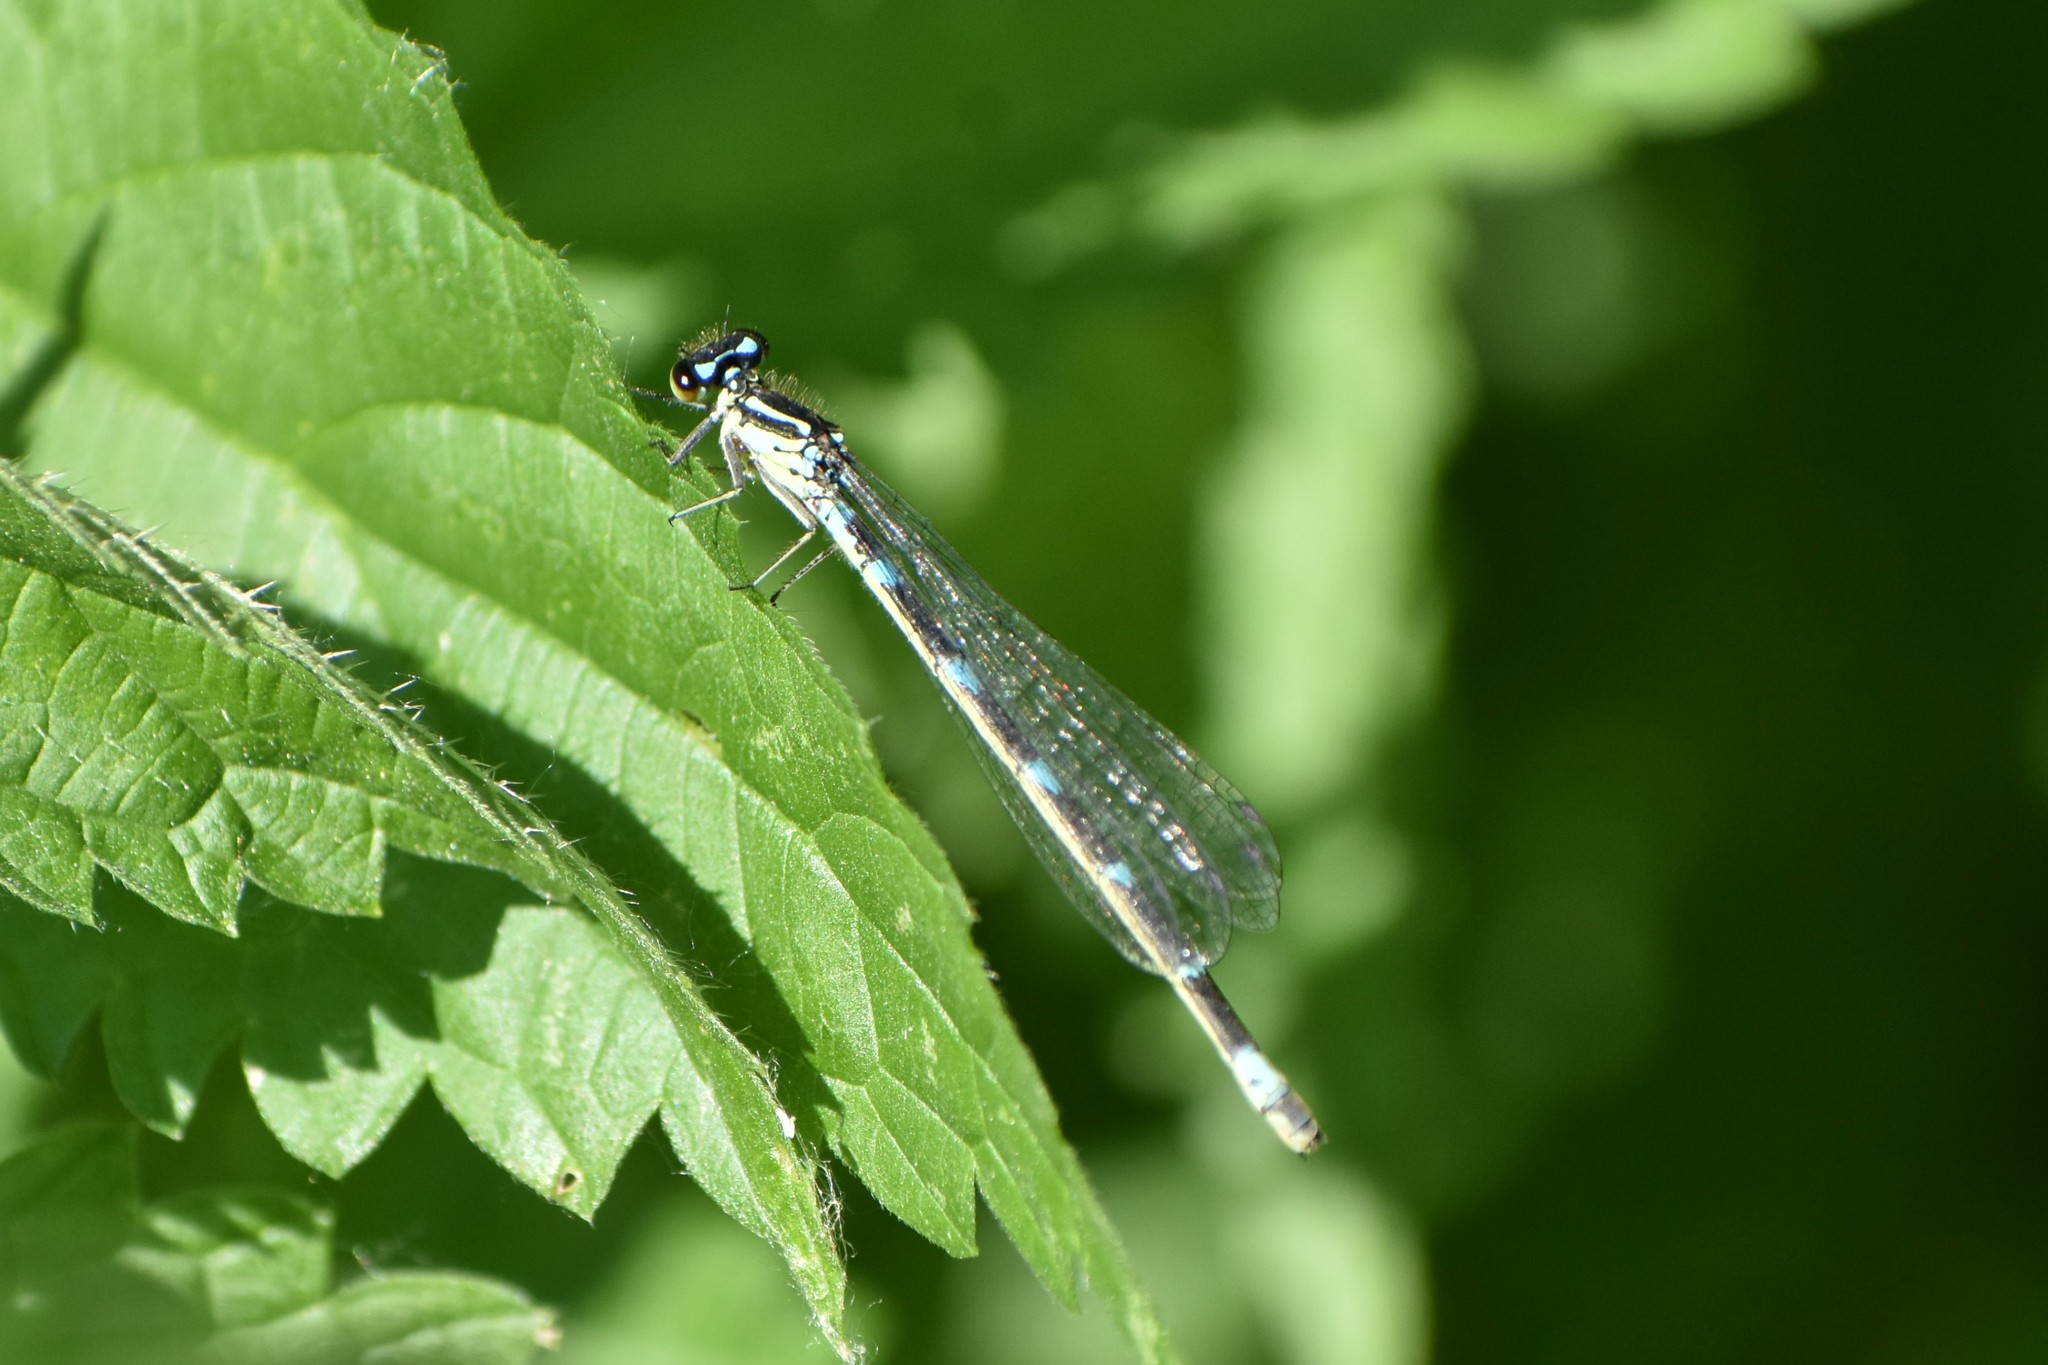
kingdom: Animalia
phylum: Arthropoda
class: Insecta
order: Odonata
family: Coenagrionidae
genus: Coenagrion
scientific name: Coenagrion pulchellum
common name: Variable bluet
